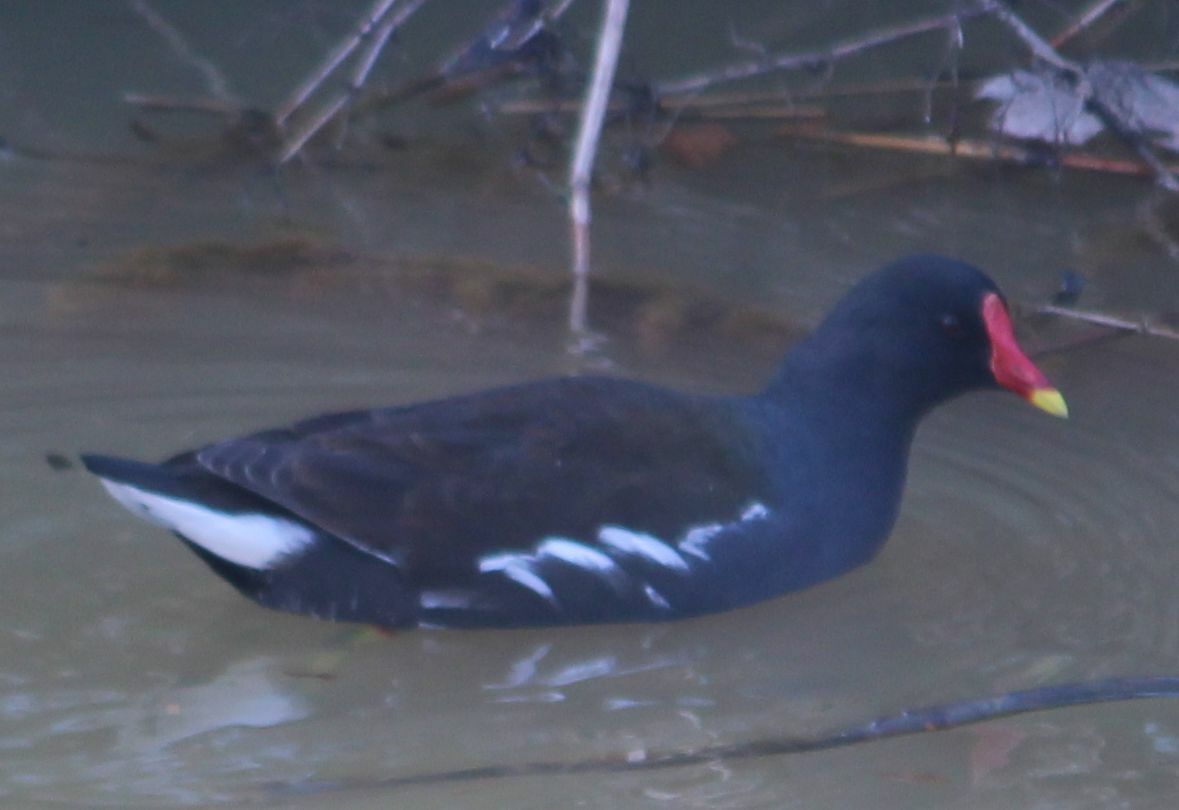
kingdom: Animalia
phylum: Chordata
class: Aves
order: Gruiformes
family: Rallidae
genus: Gallinula
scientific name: Gallinula chloropus
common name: Common moorhen
